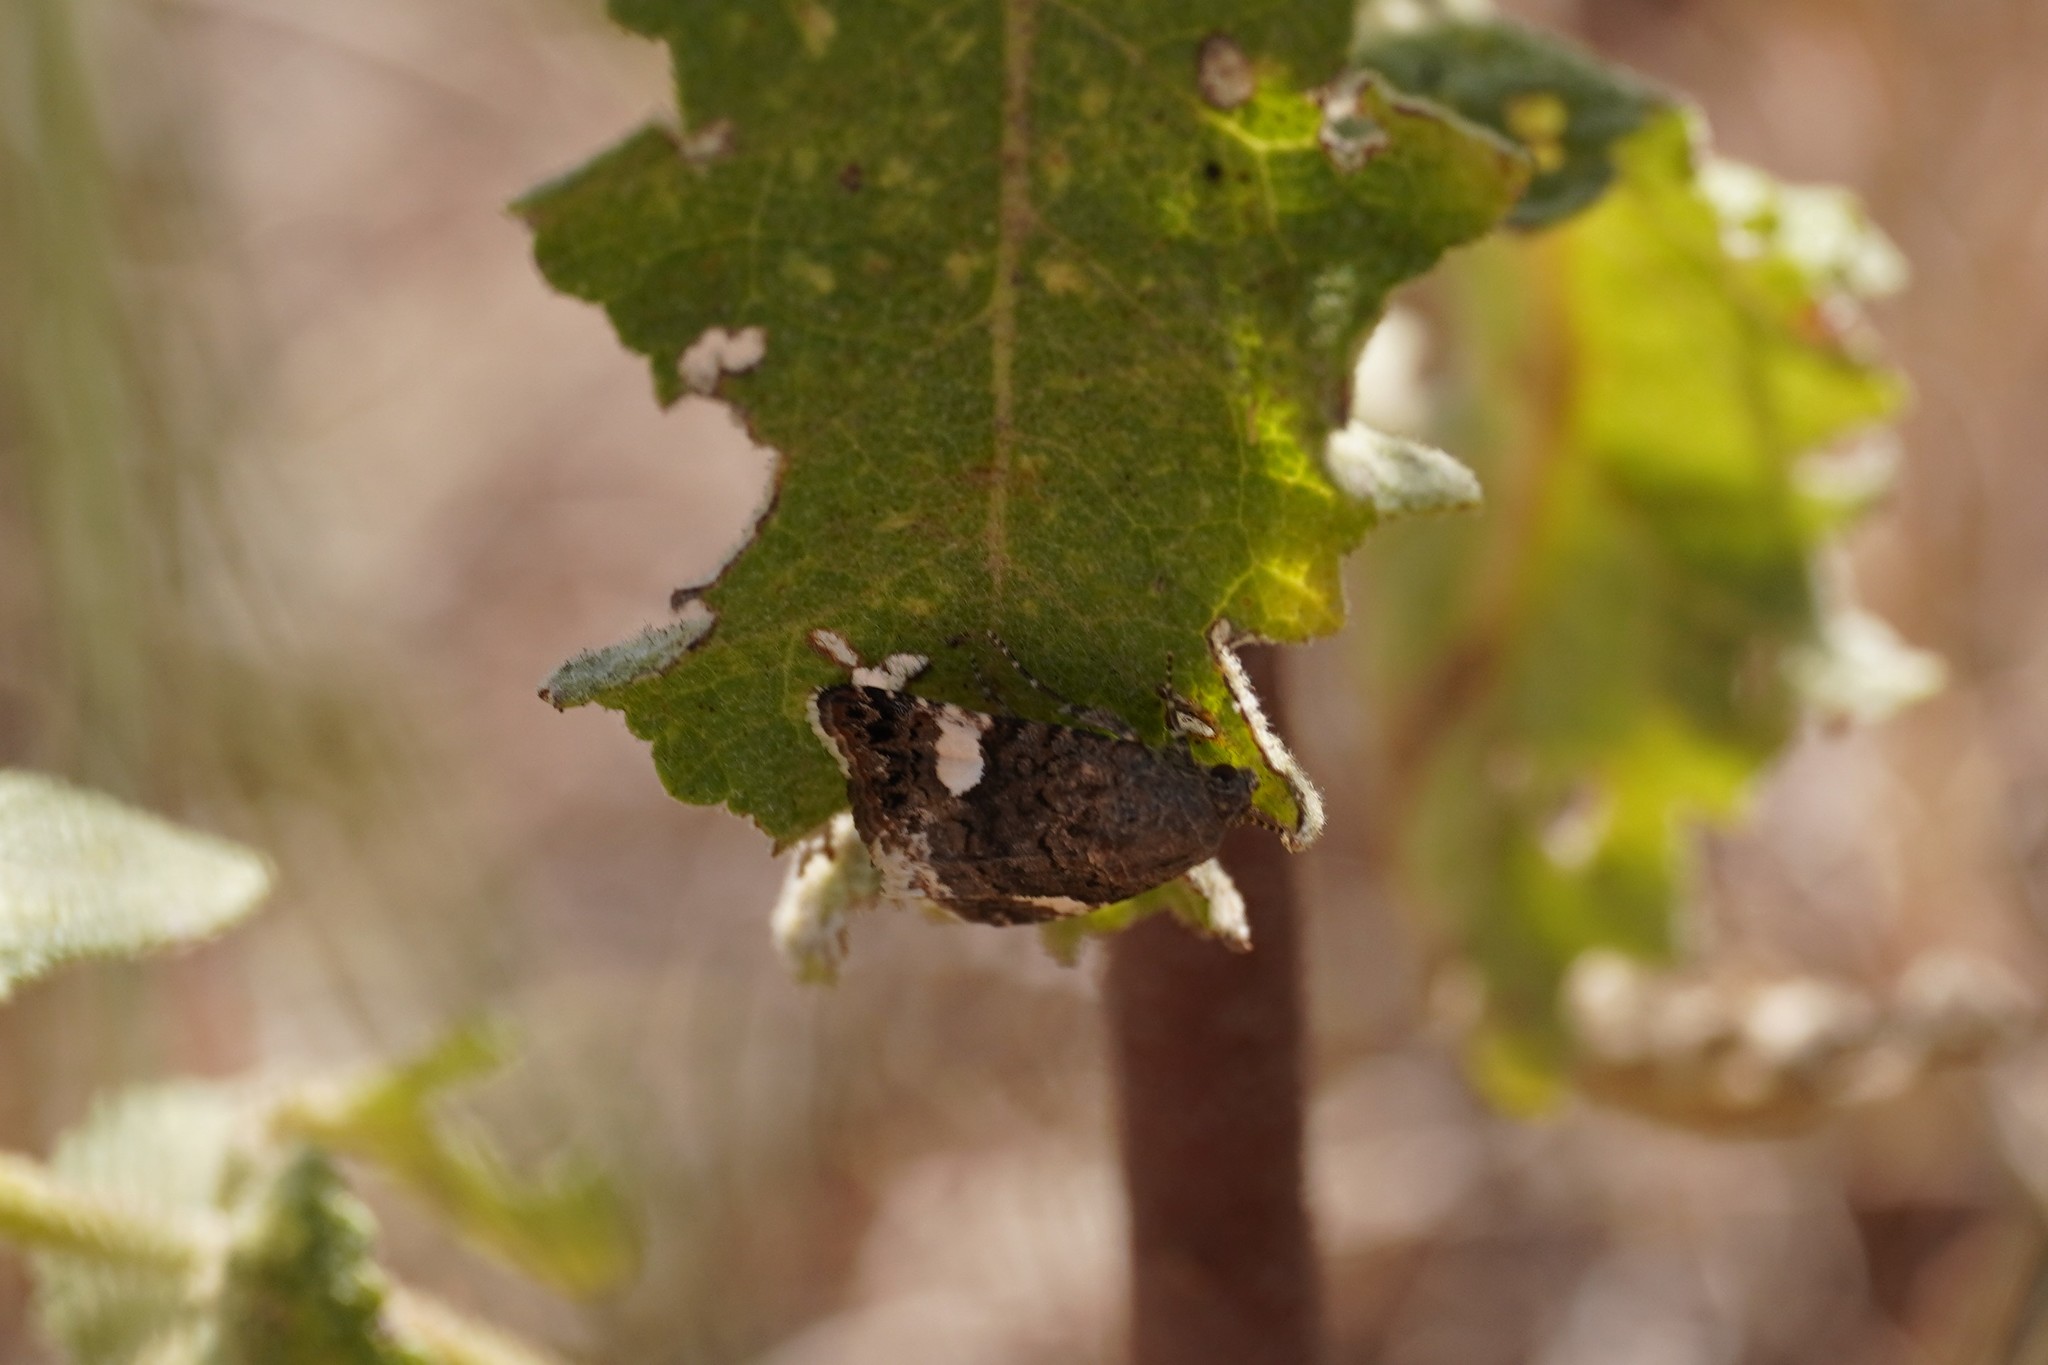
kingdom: Animalia
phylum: Arthropoda
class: Insecta
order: Lepidoptera
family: Erebidae
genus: Tyta
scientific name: Tyta luctuosa
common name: Four-spotted
